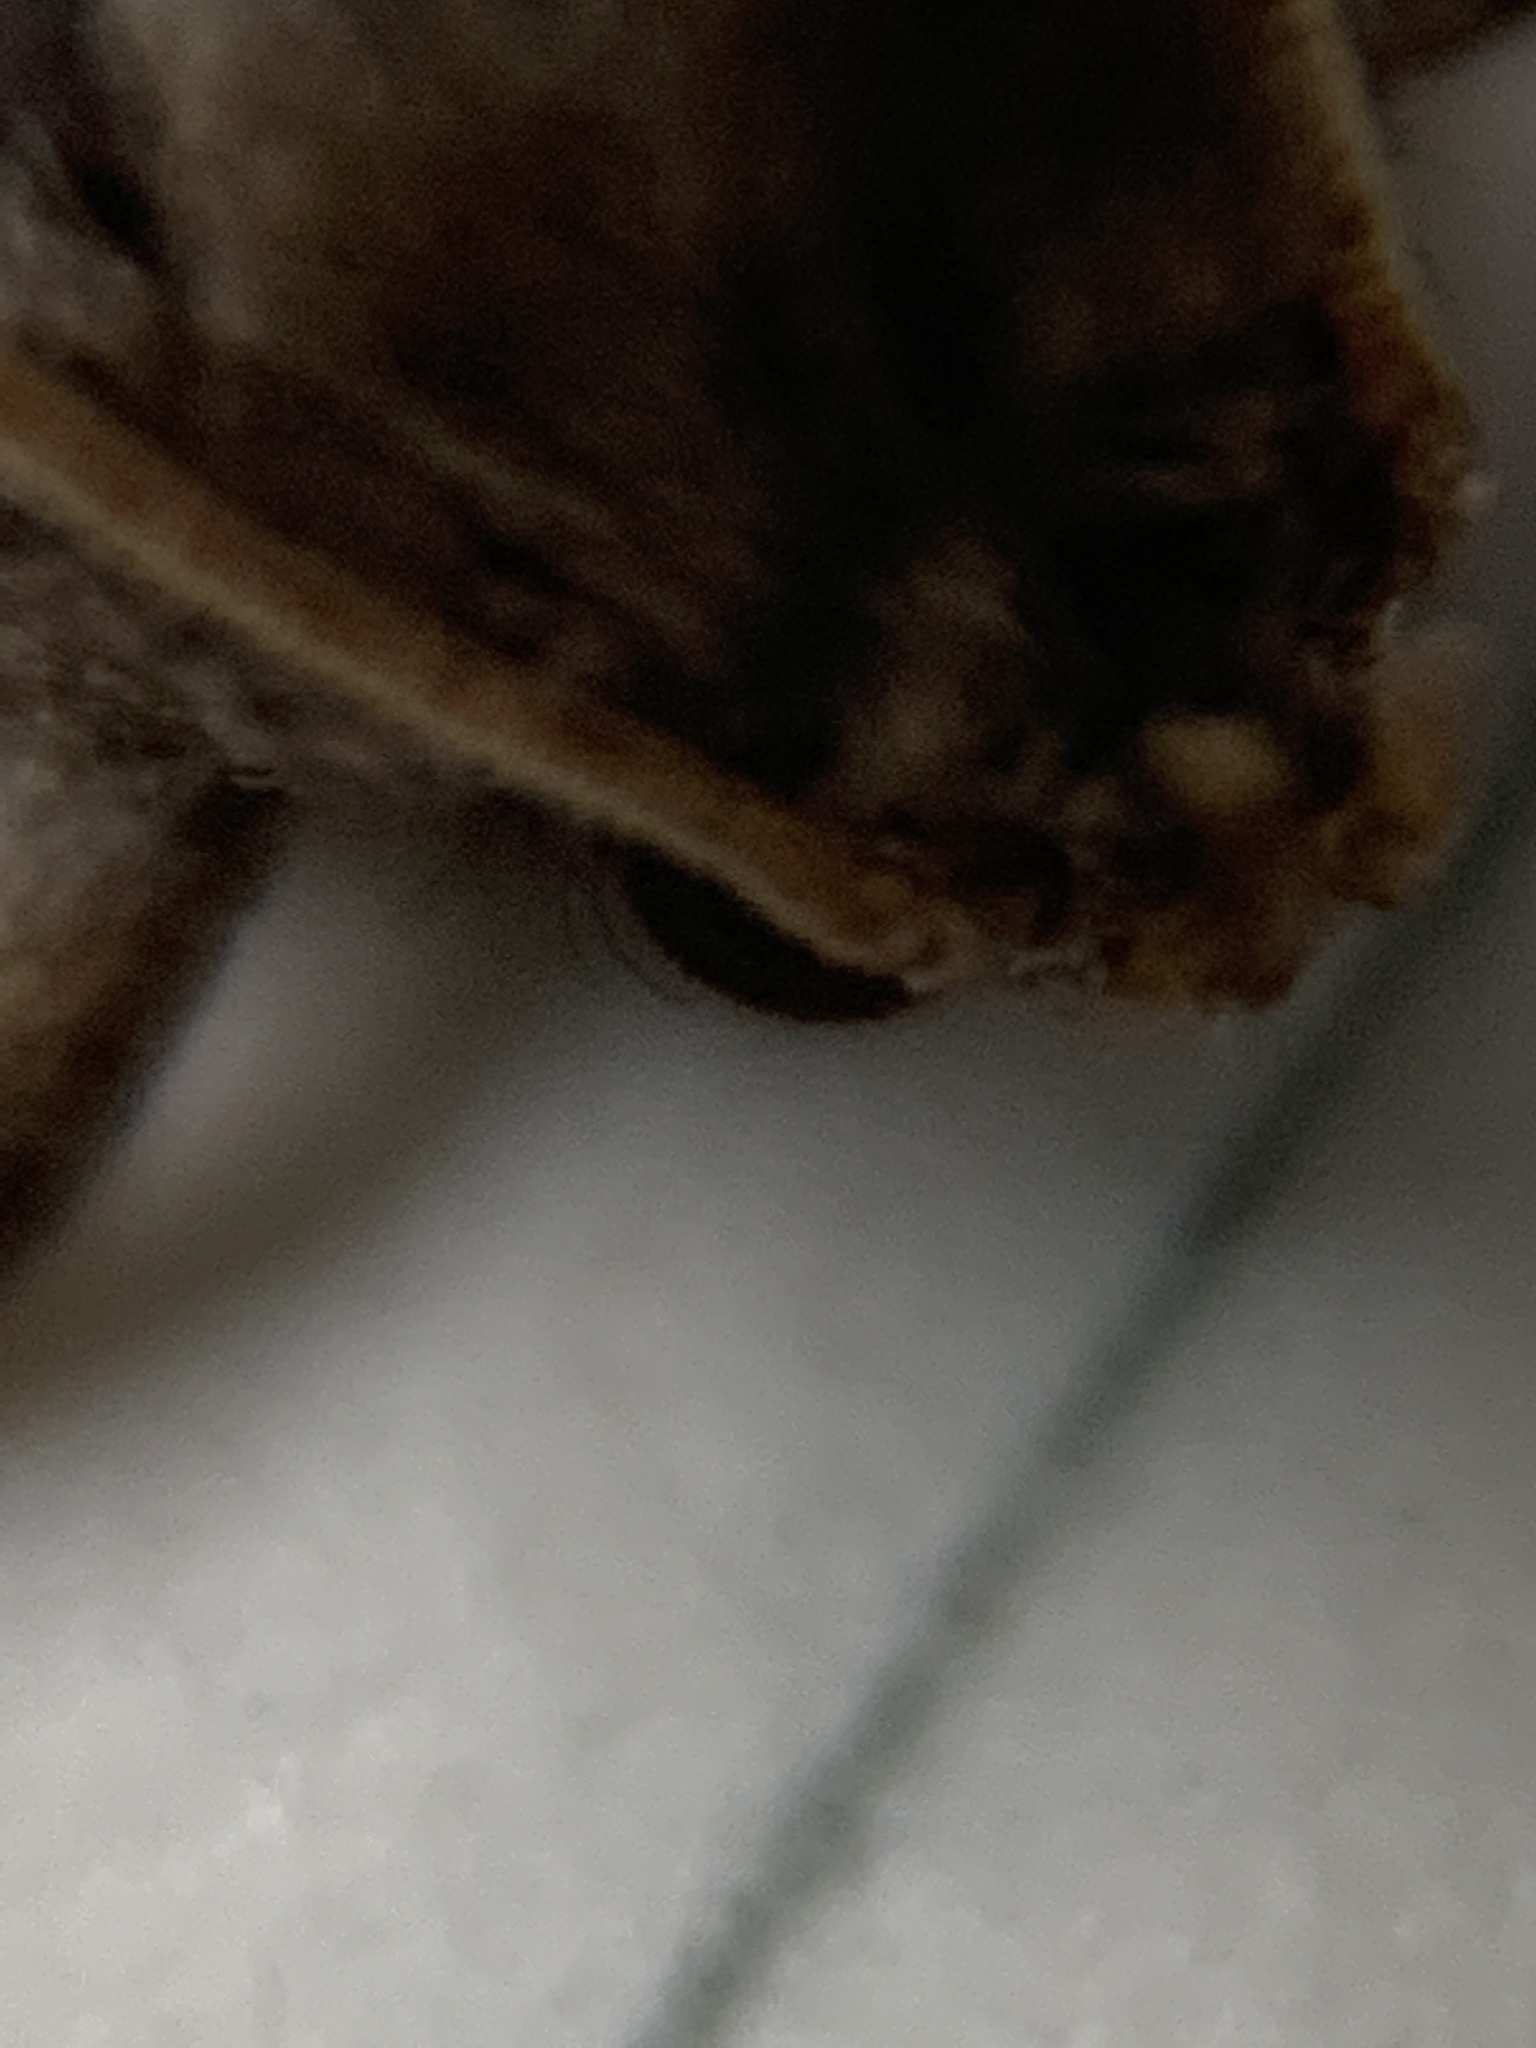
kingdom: Animalia
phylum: Arthropoda
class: Insecta
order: Lepidoptera
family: Tineidae
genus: Acrolophus
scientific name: Acrolophus forbesi
